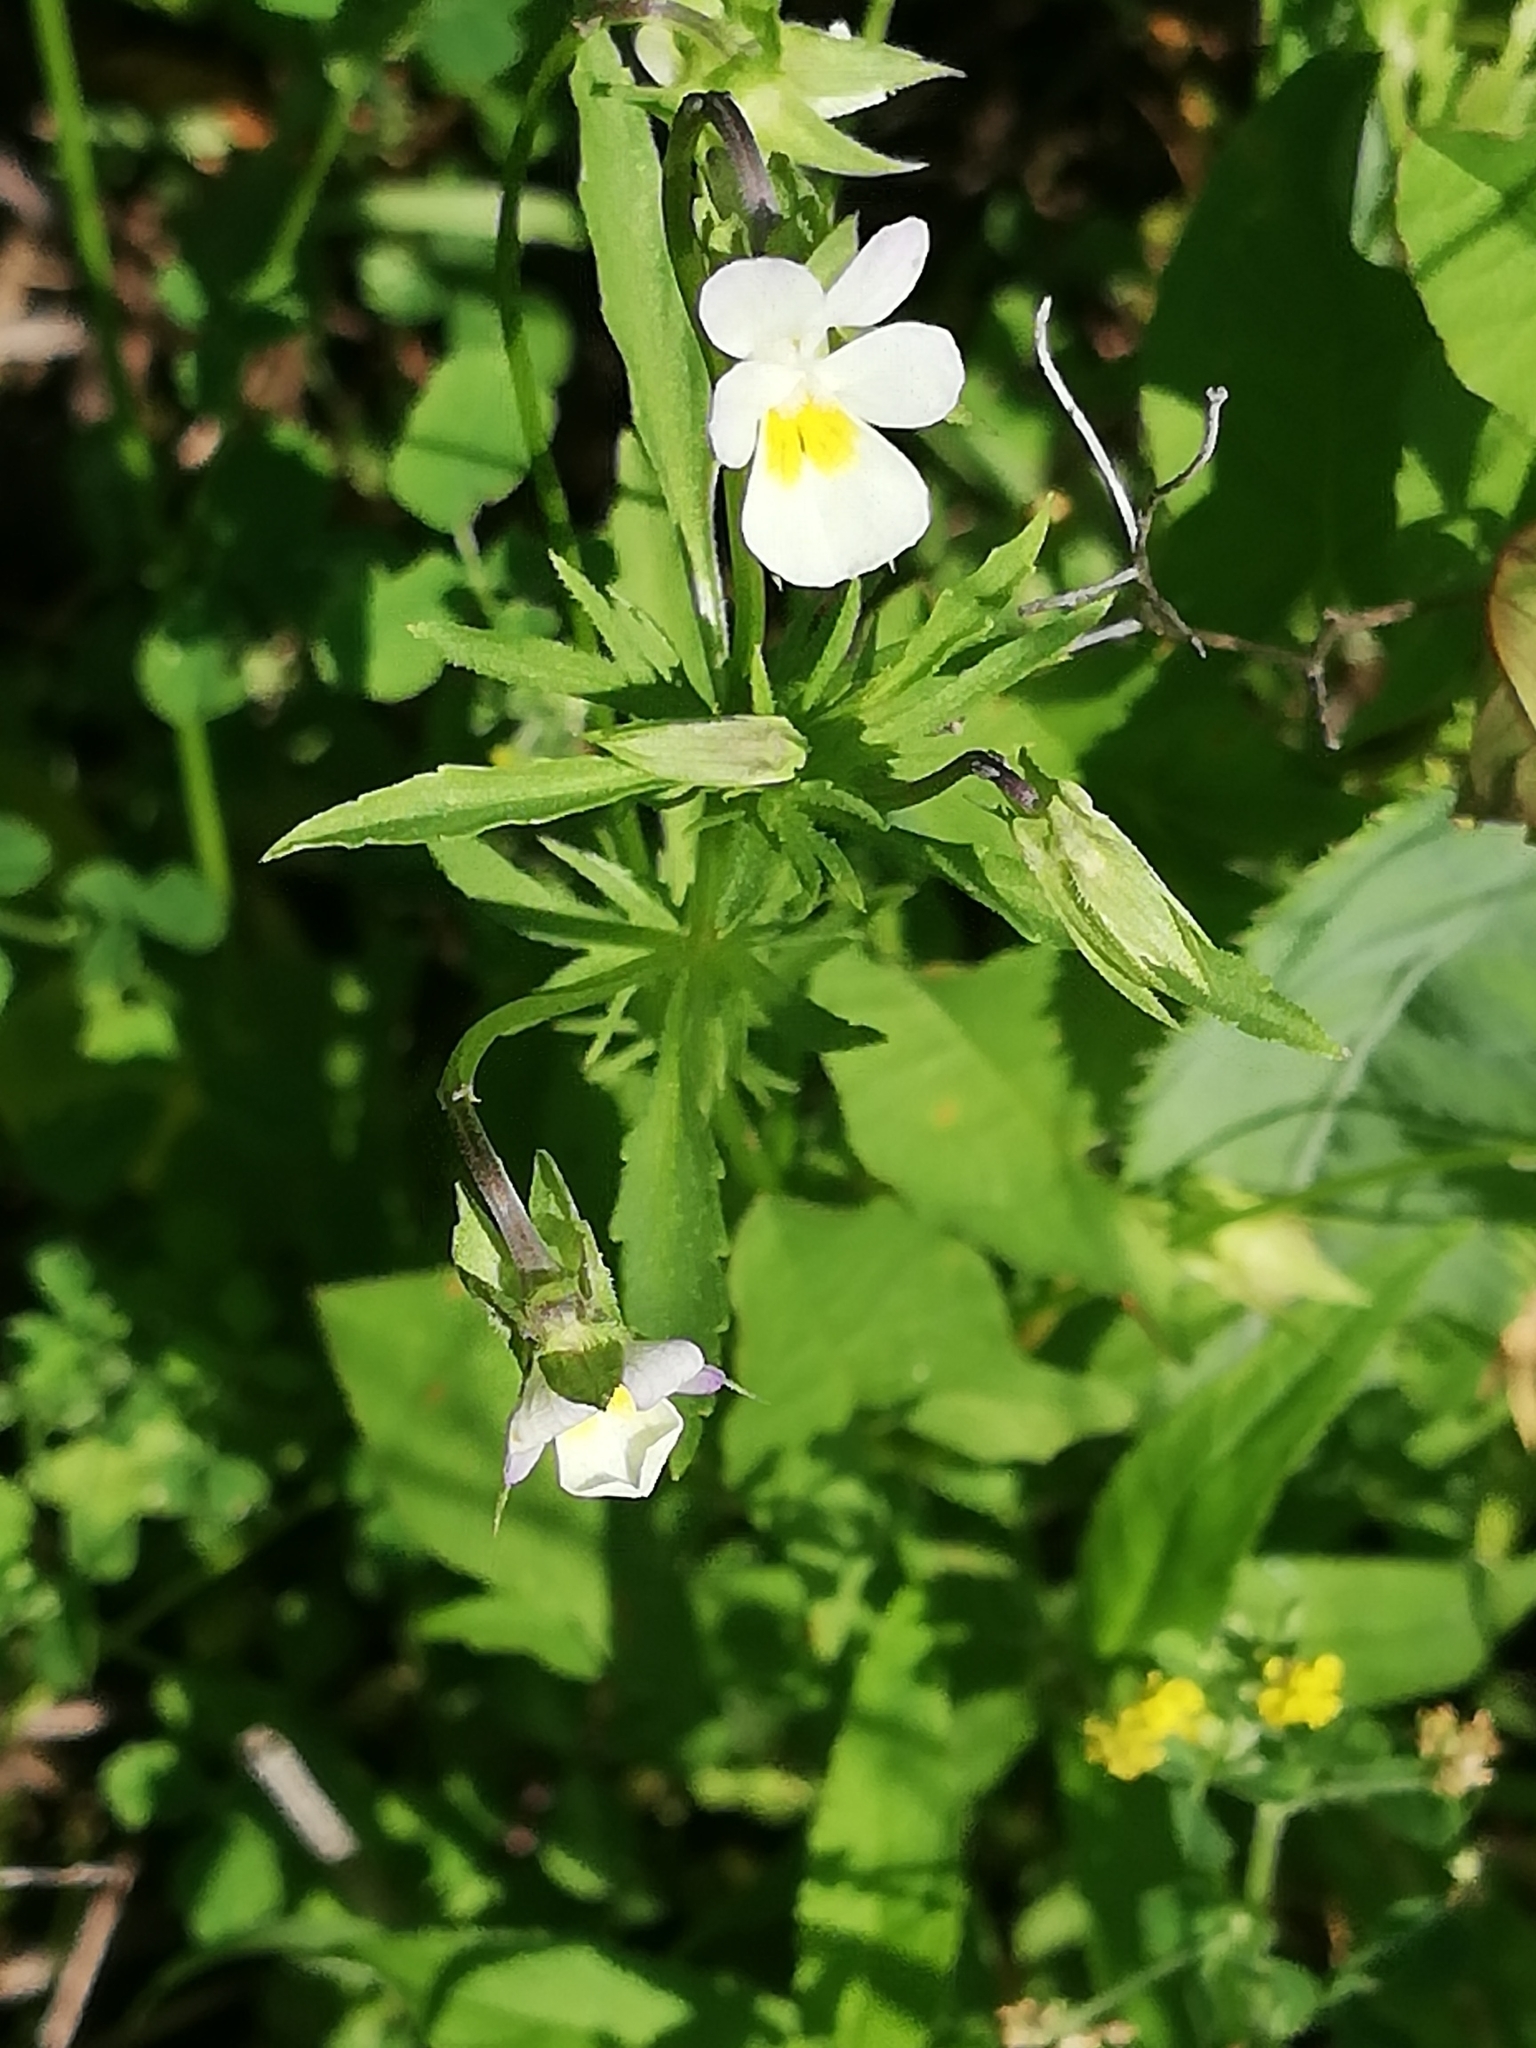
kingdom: Plantae
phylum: Tracheophyta
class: Magnoliopsida
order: Malpighiales
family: Violaceae
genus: Viola
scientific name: Viola arvensis
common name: Field pansy
